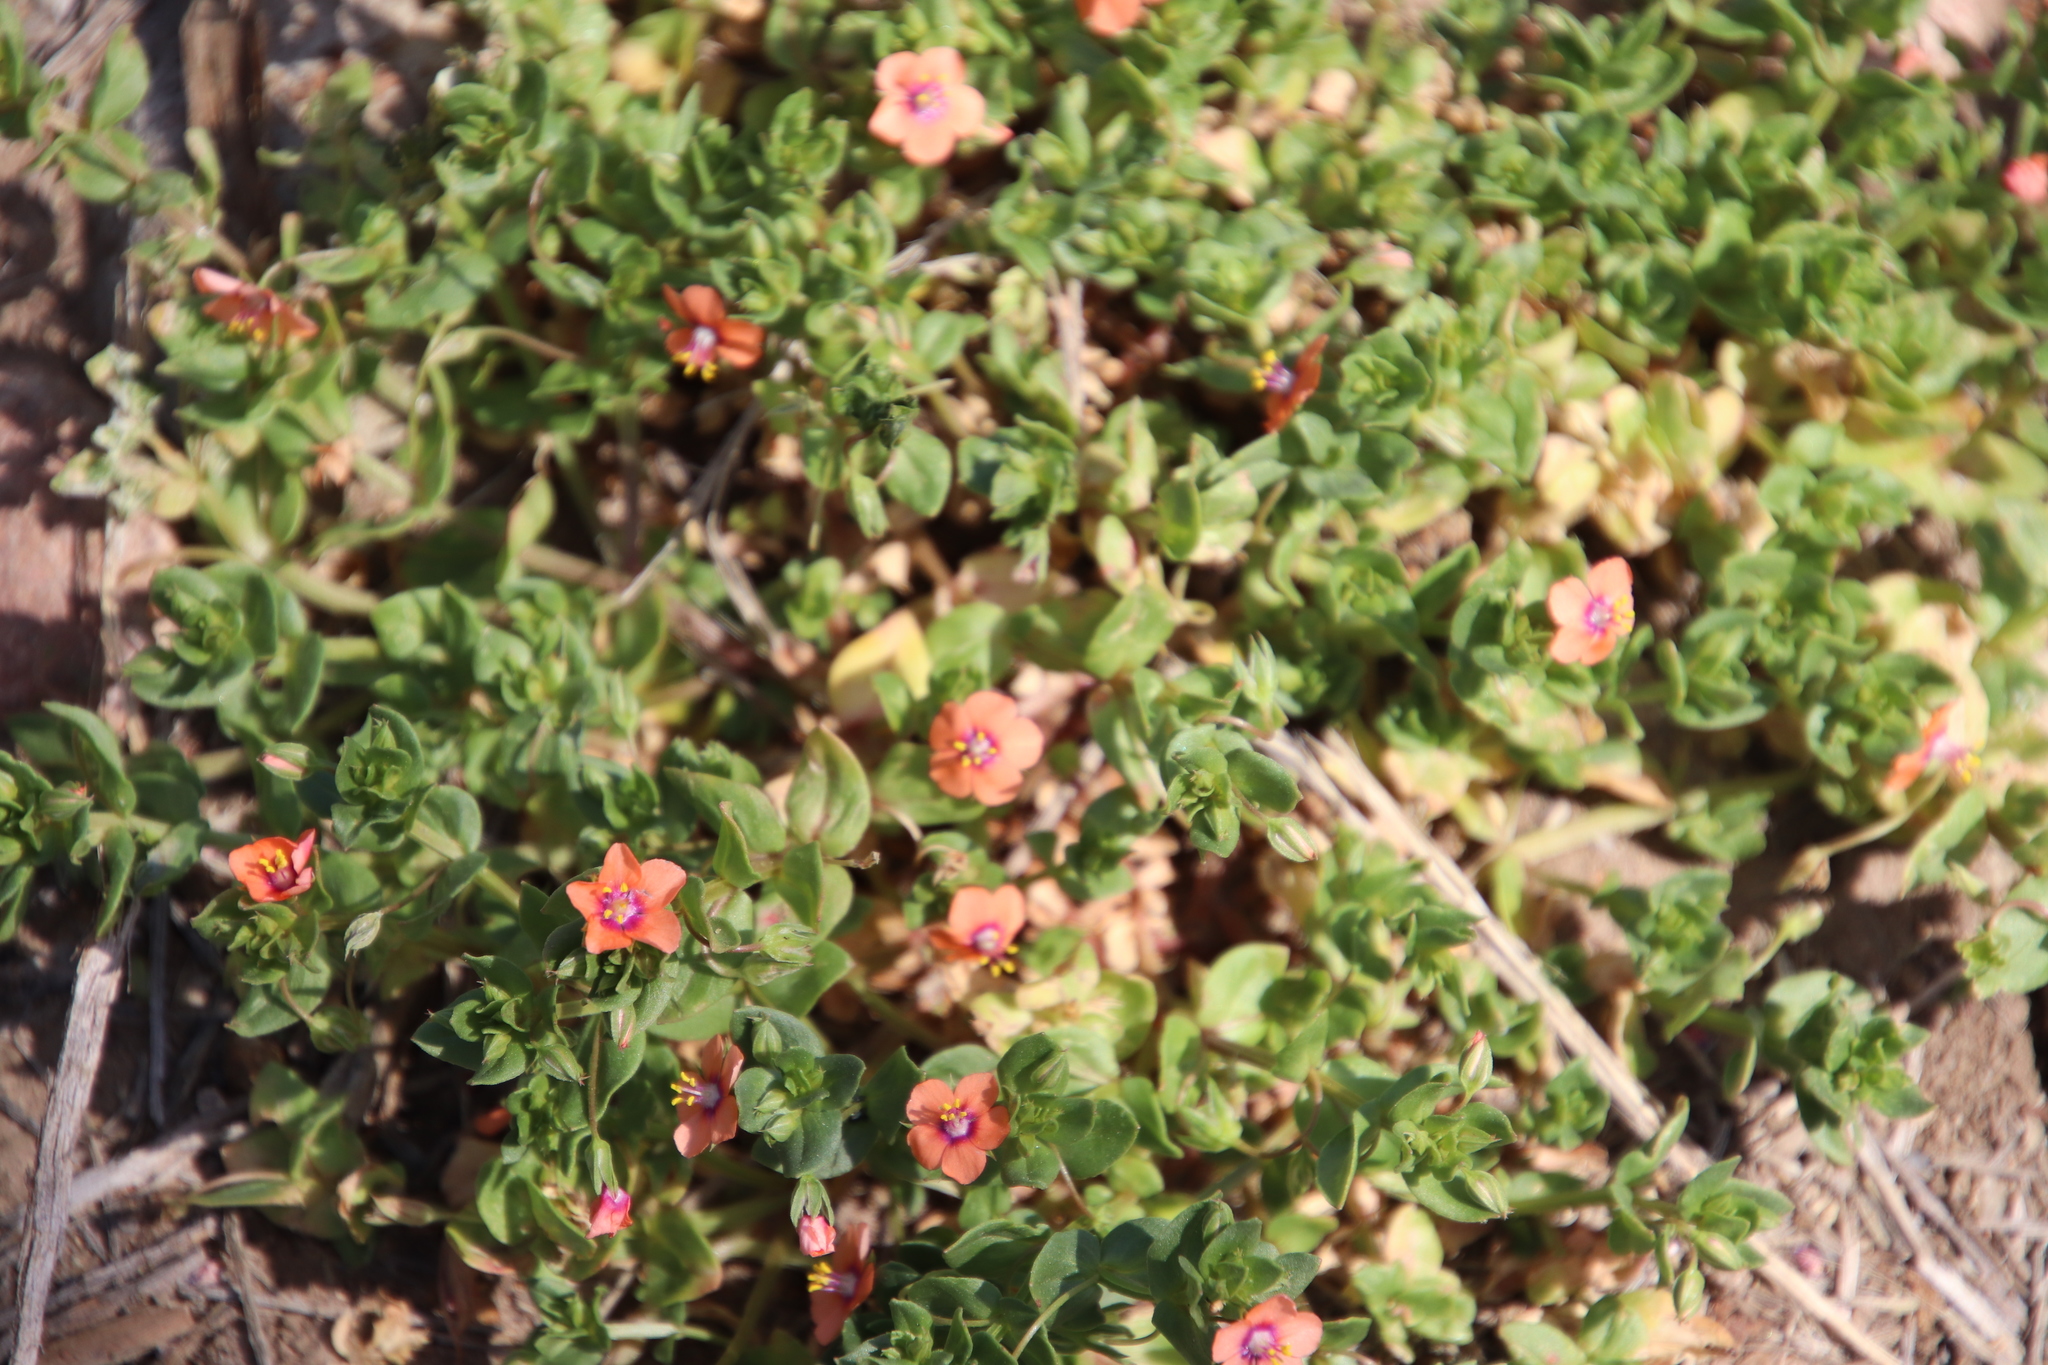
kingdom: Plantae
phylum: Tracheophyta
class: Magnoliopsida
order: Ericales
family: Primulaceae
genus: Lysimachia
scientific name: Lysimachia arvensis
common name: Scarlet pimpernel
